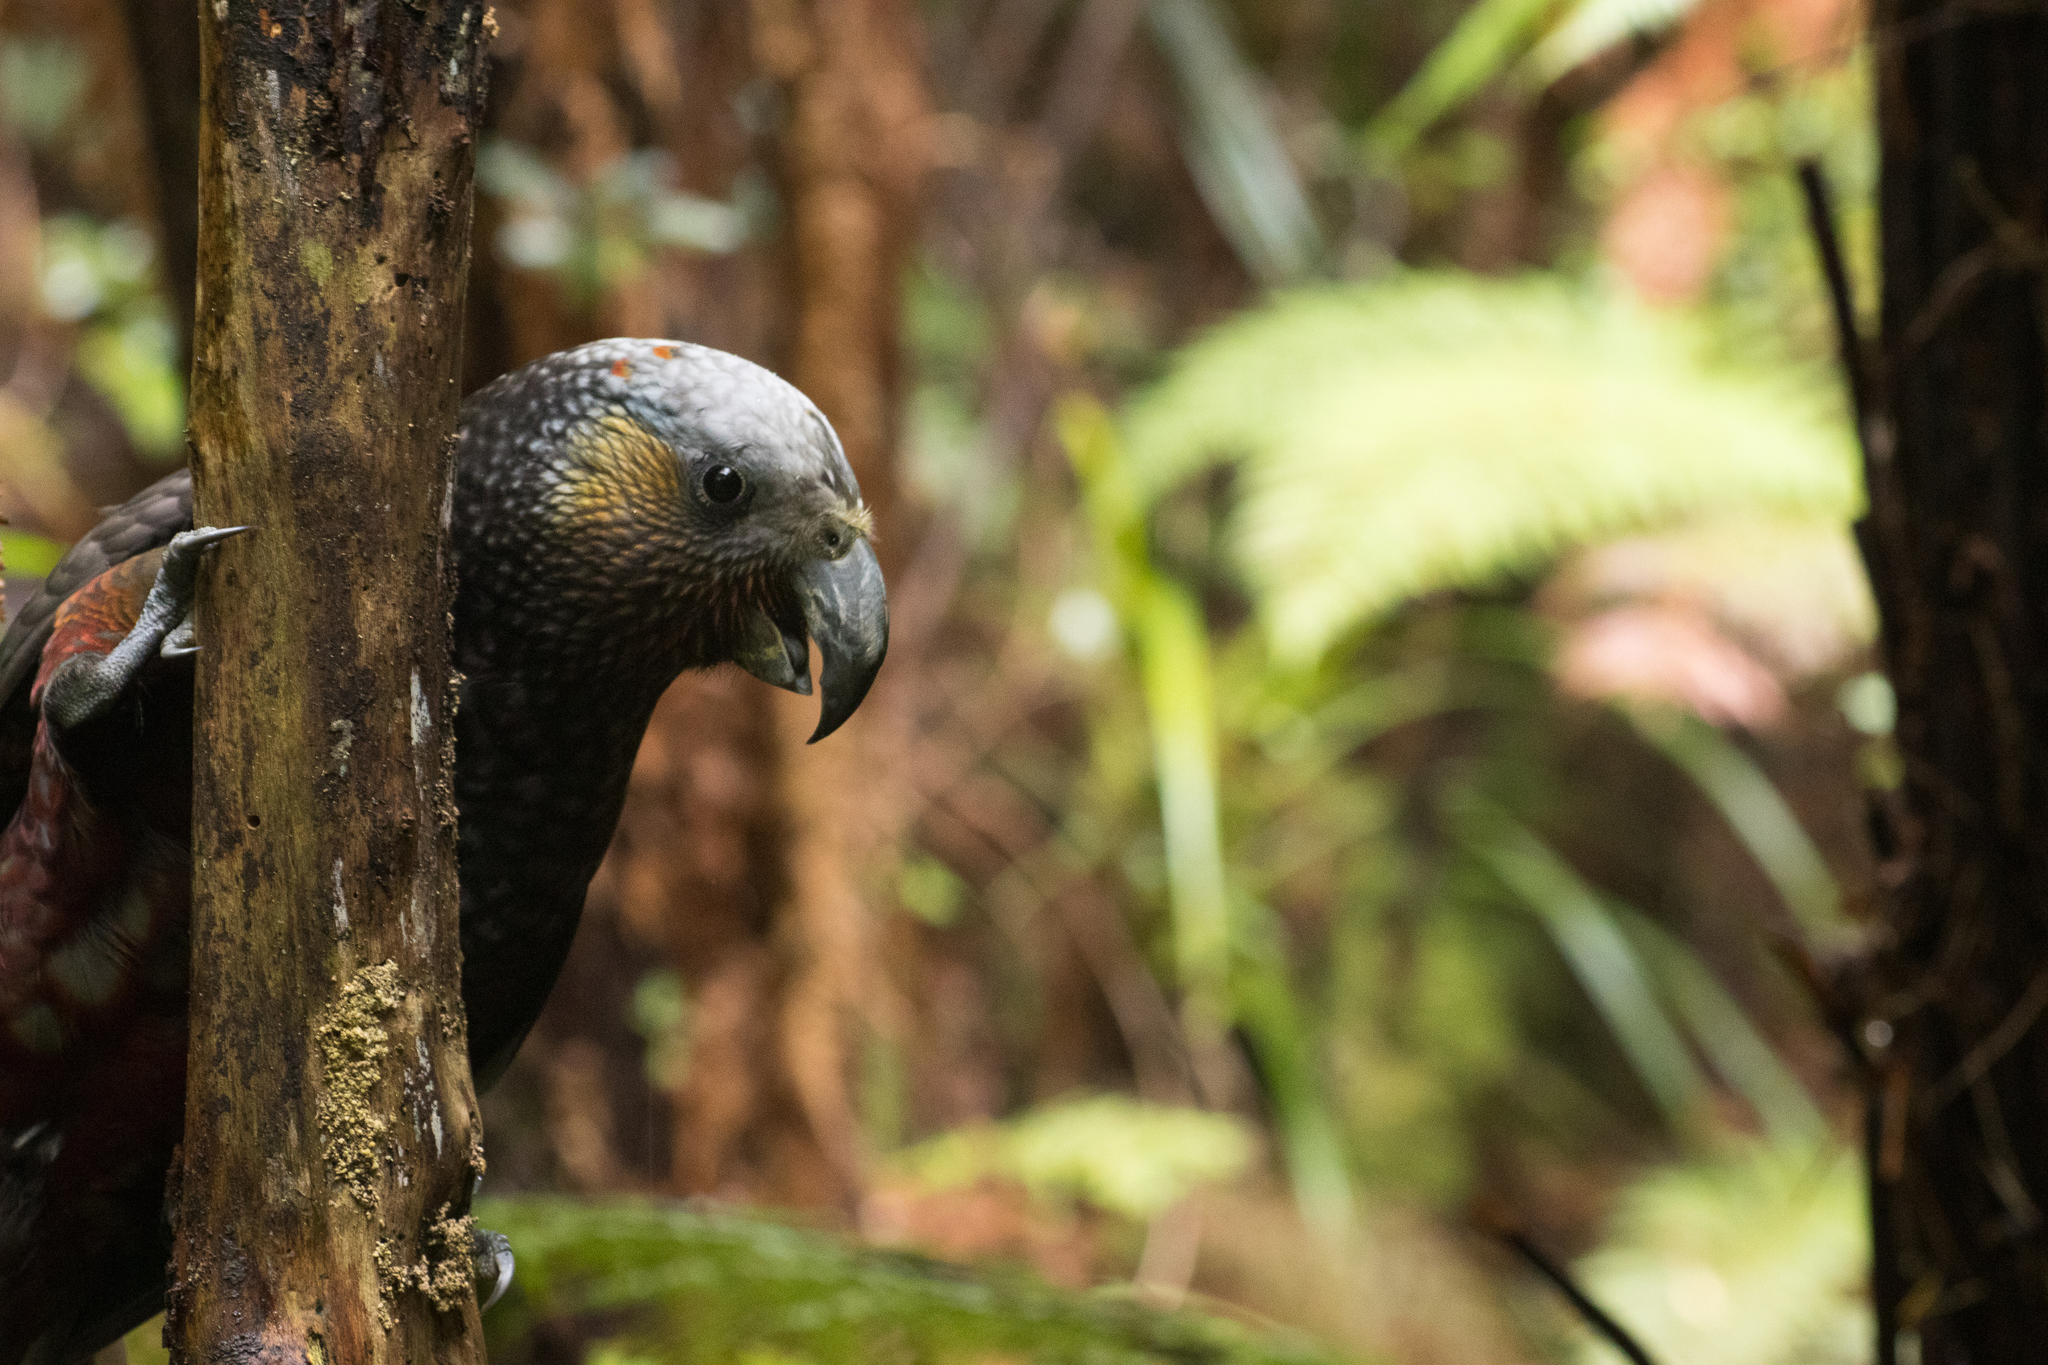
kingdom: Animalia
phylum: Chordata
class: Aves
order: Psittaciformes
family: Psittacidae
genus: Nestor
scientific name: Nestor meridionalis
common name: New zealand kaka
